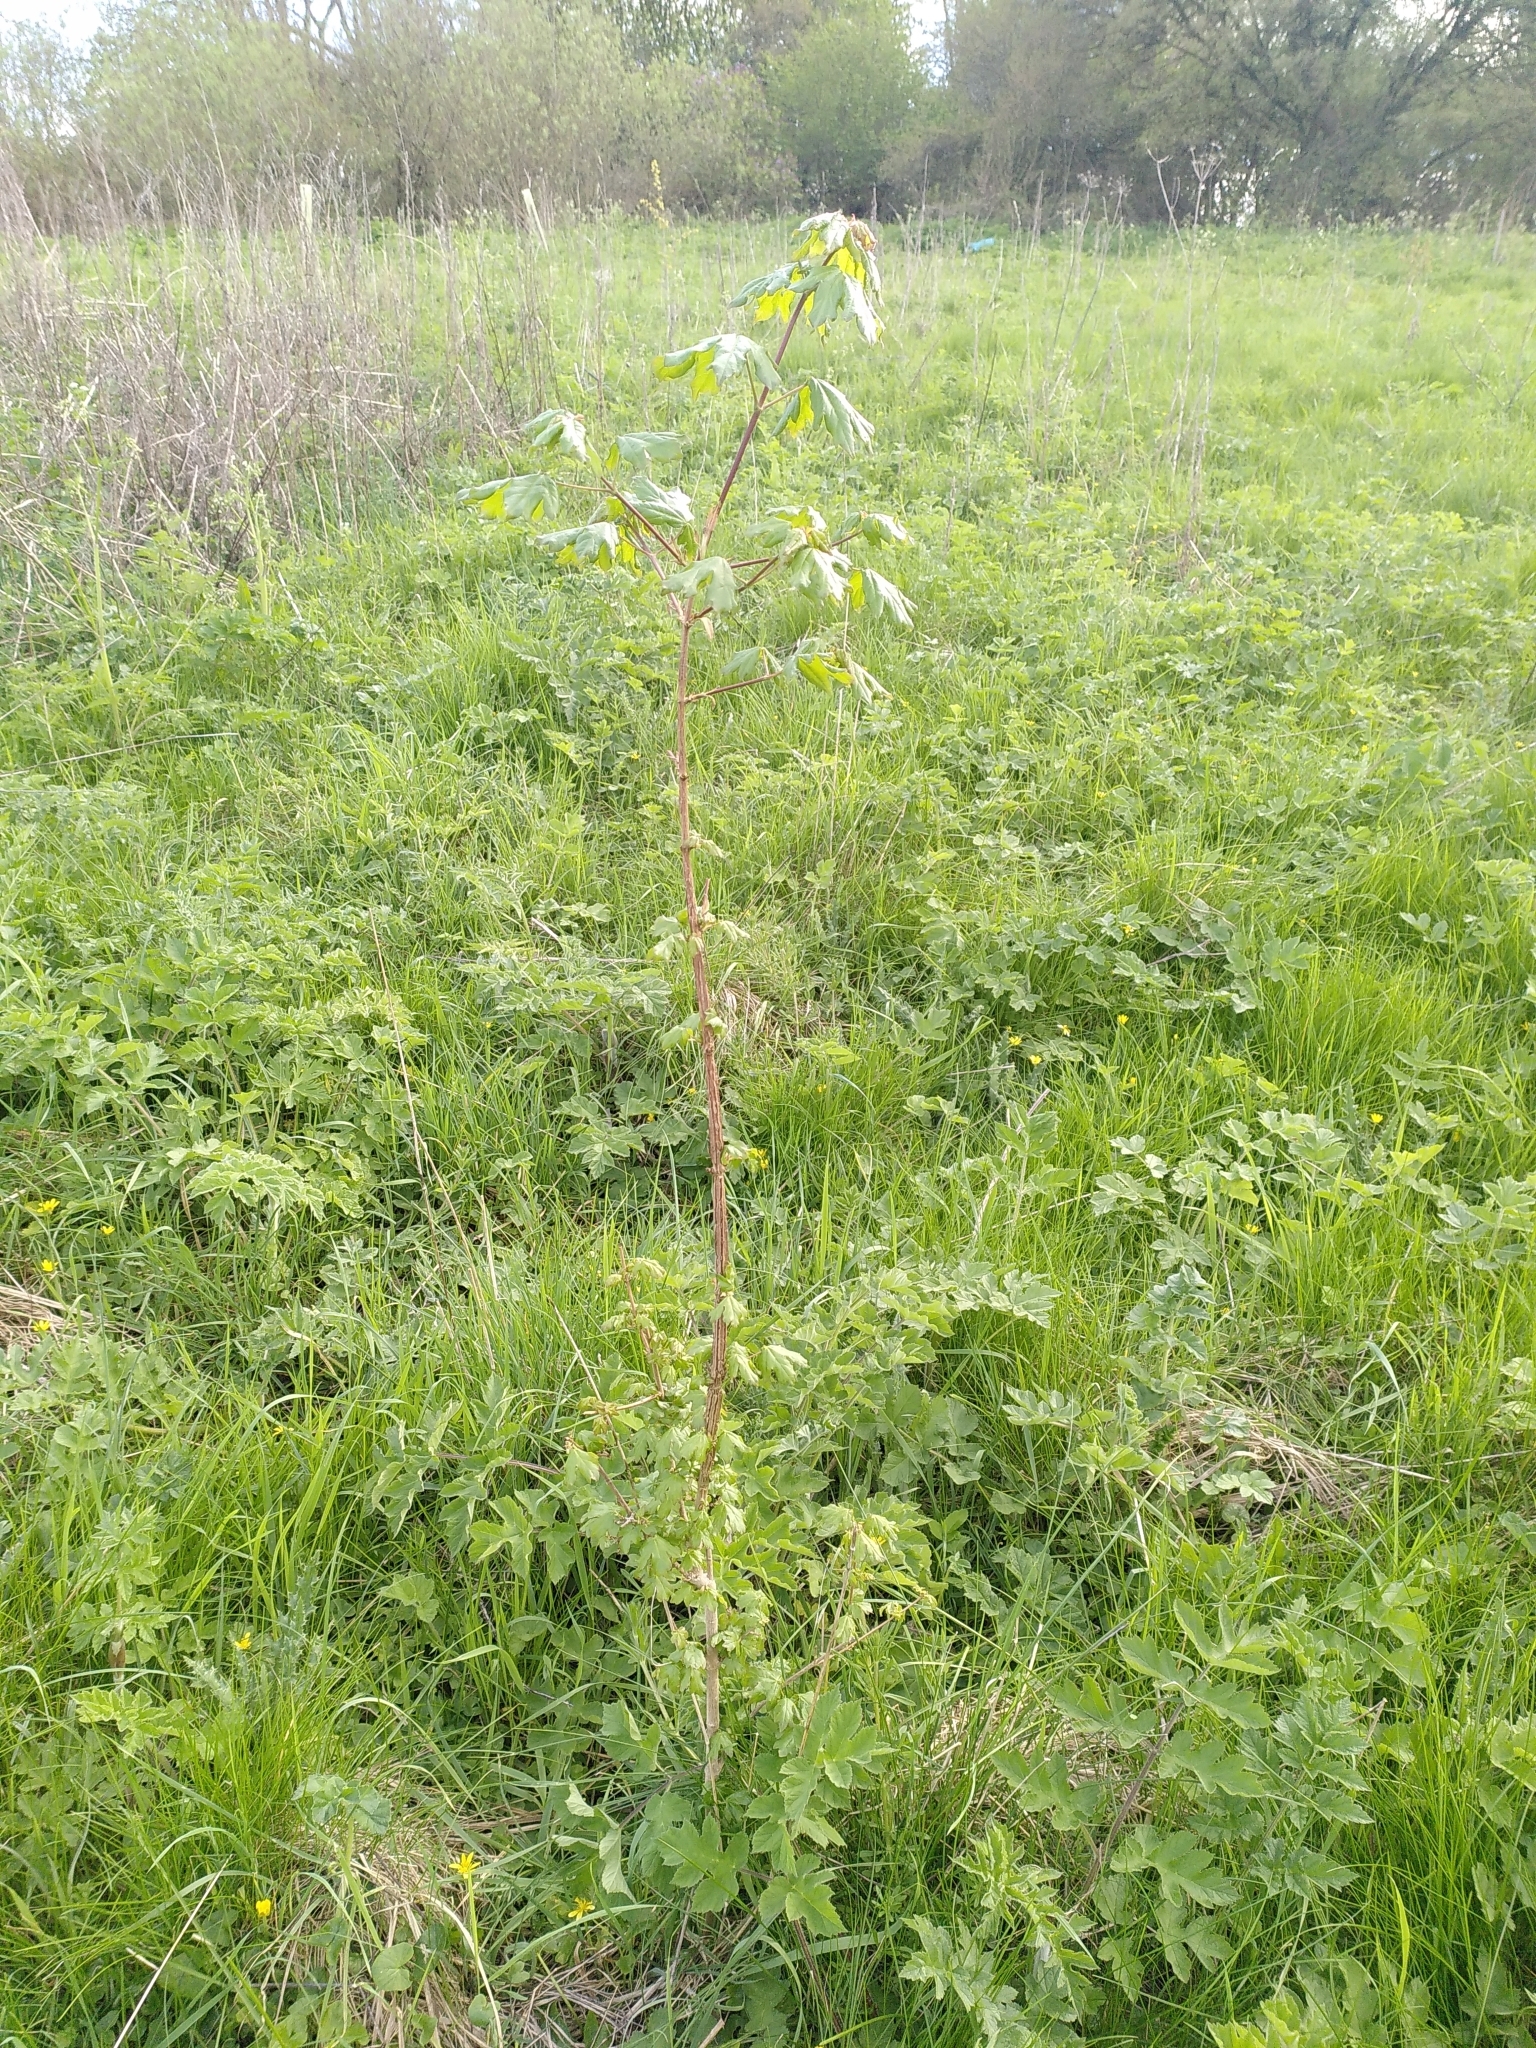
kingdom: Plantae
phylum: Tracheophyta
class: Magnoliopsida
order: Sapindales
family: Sapindaceae
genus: Acer
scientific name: Acer campestre
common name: Field maple
